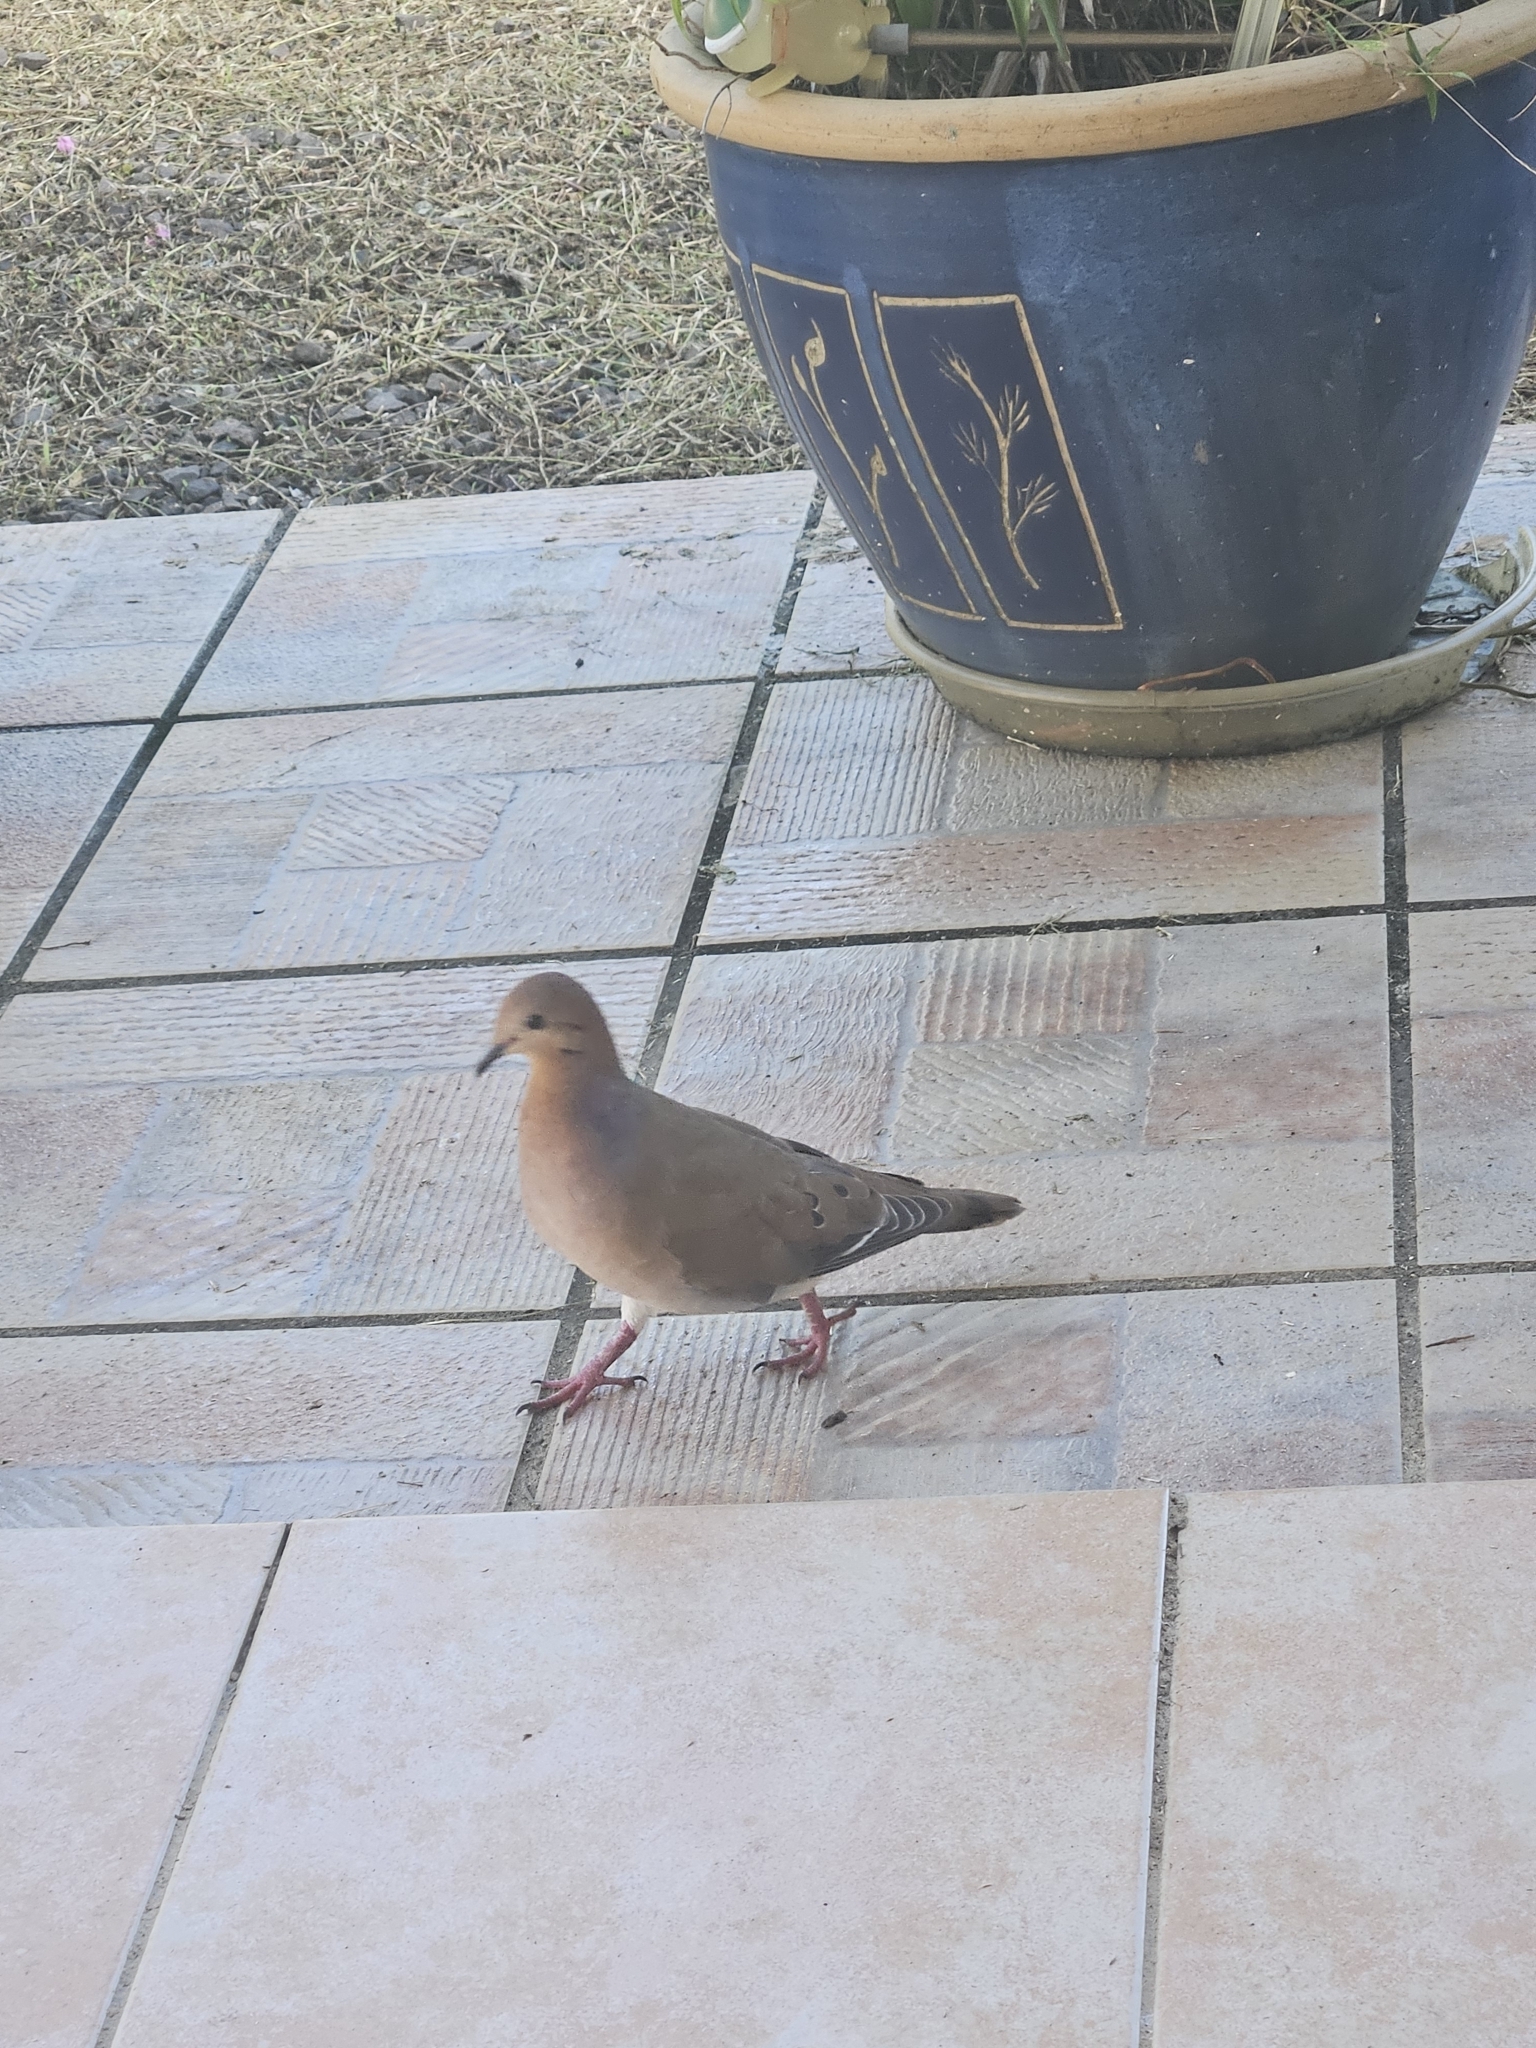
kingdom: Animalia
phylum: Chordata
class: Aves
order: Columbiformes
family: Columbidae
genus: Zenaida
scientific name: Zenaida aurita
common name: Zenaida dove
